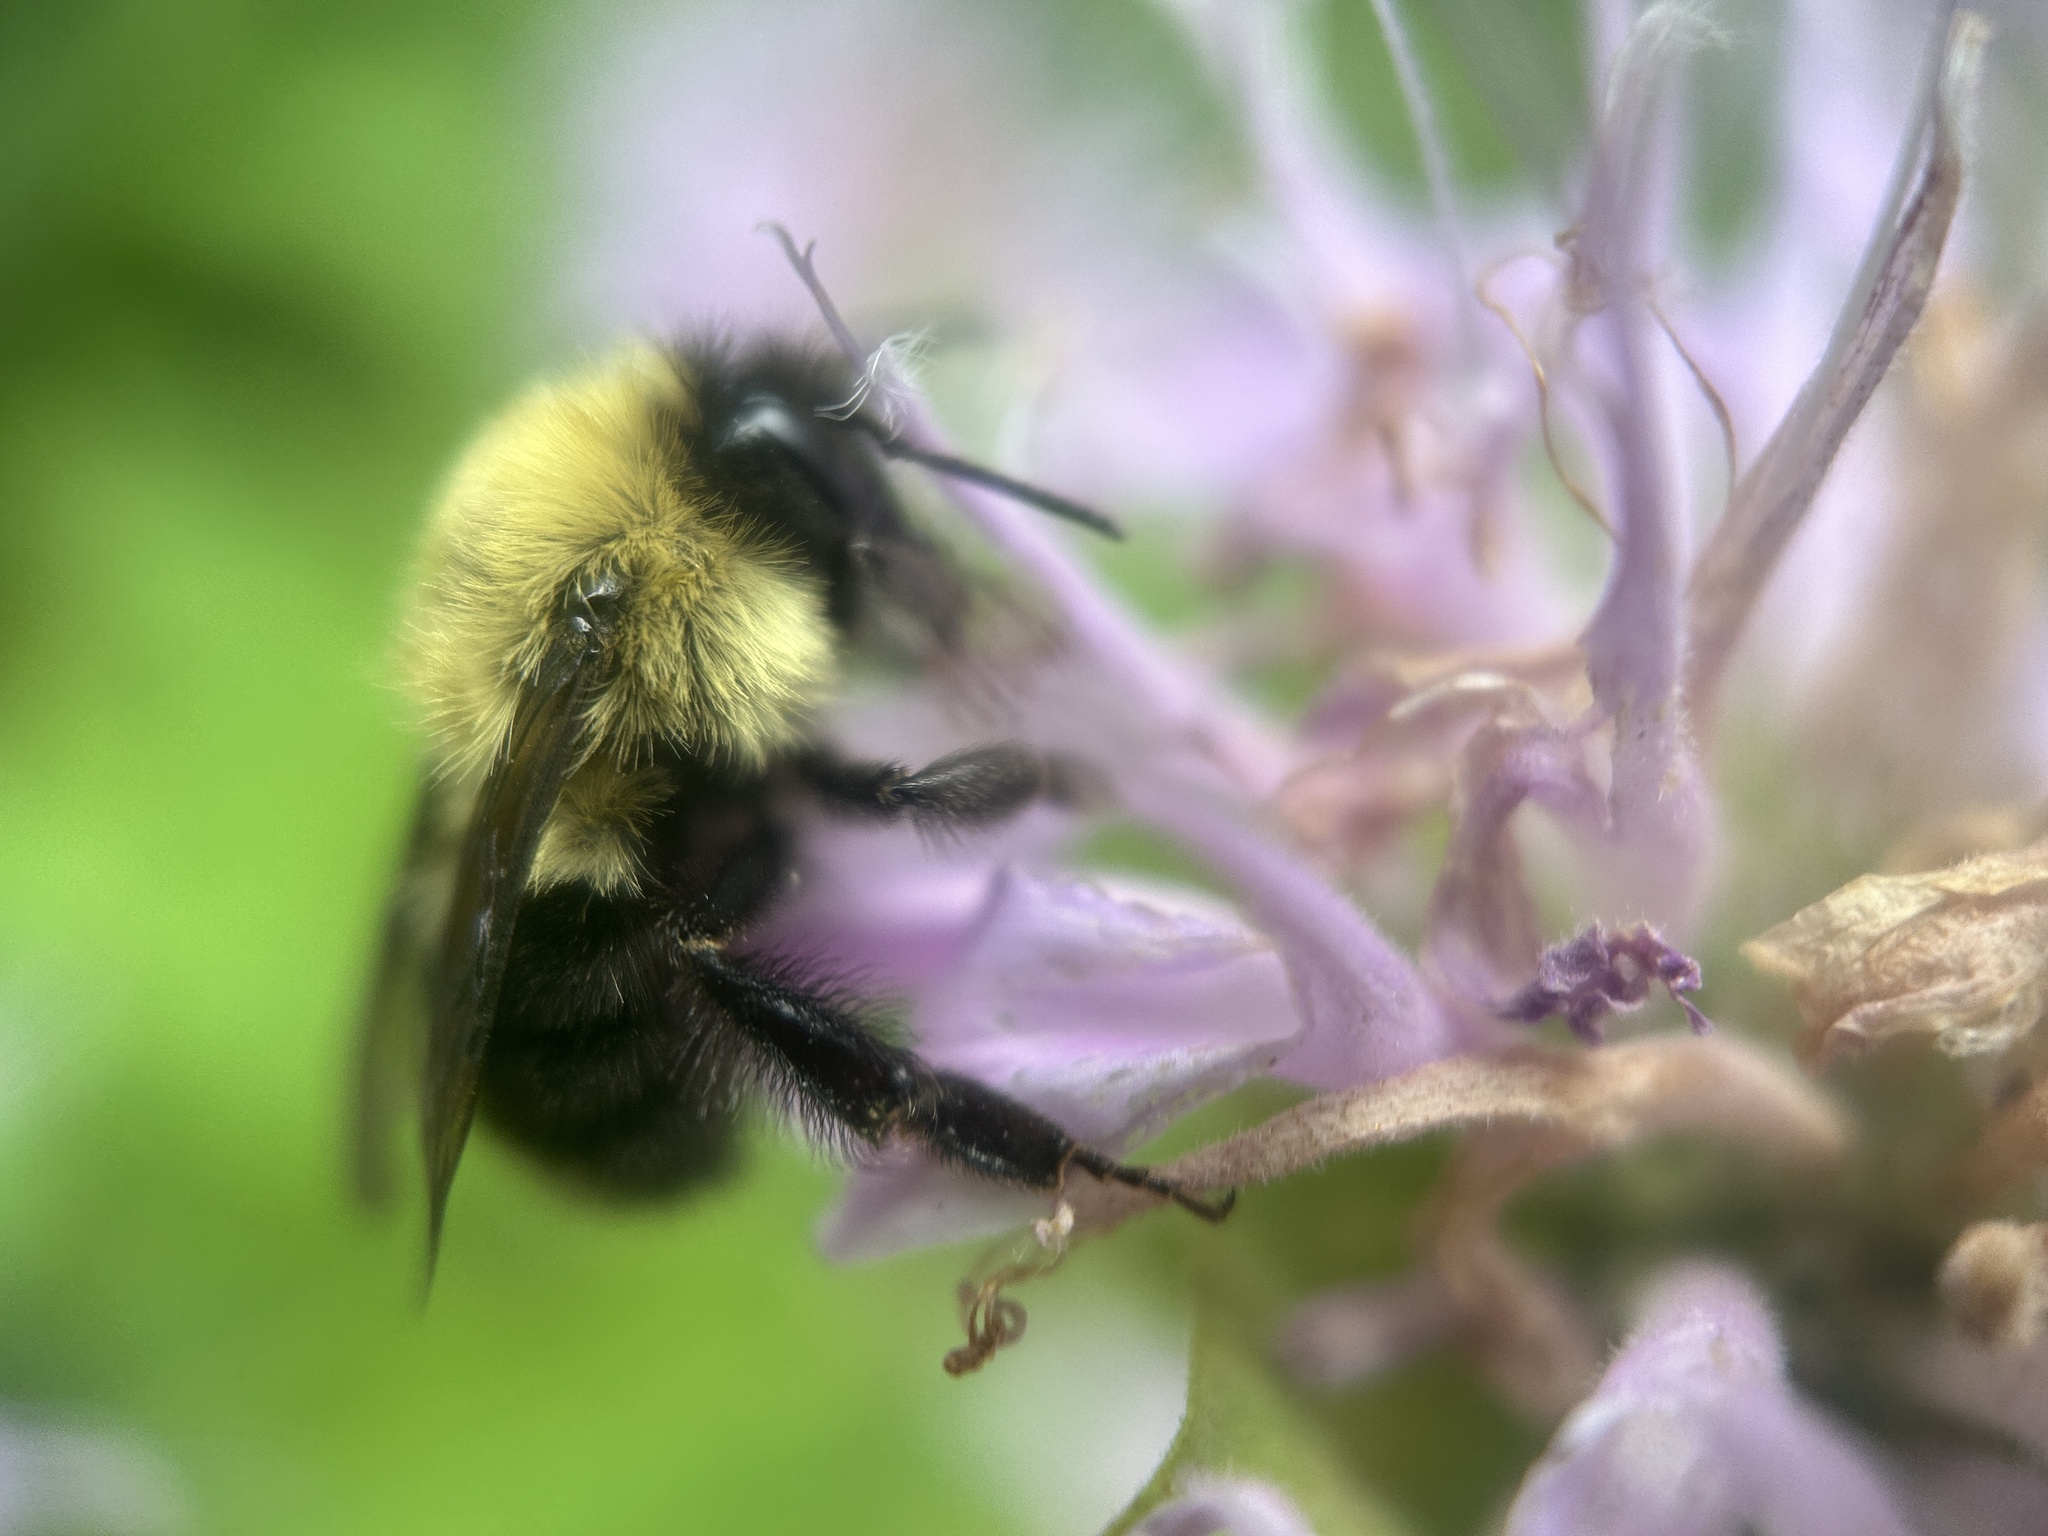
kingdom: Animalia
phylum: Arthropoda
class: Insecta
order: Hymenoptera
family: Apidae
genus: Bombus
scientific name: Bombus bimaculatus
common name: Two-spotted bumble bee
